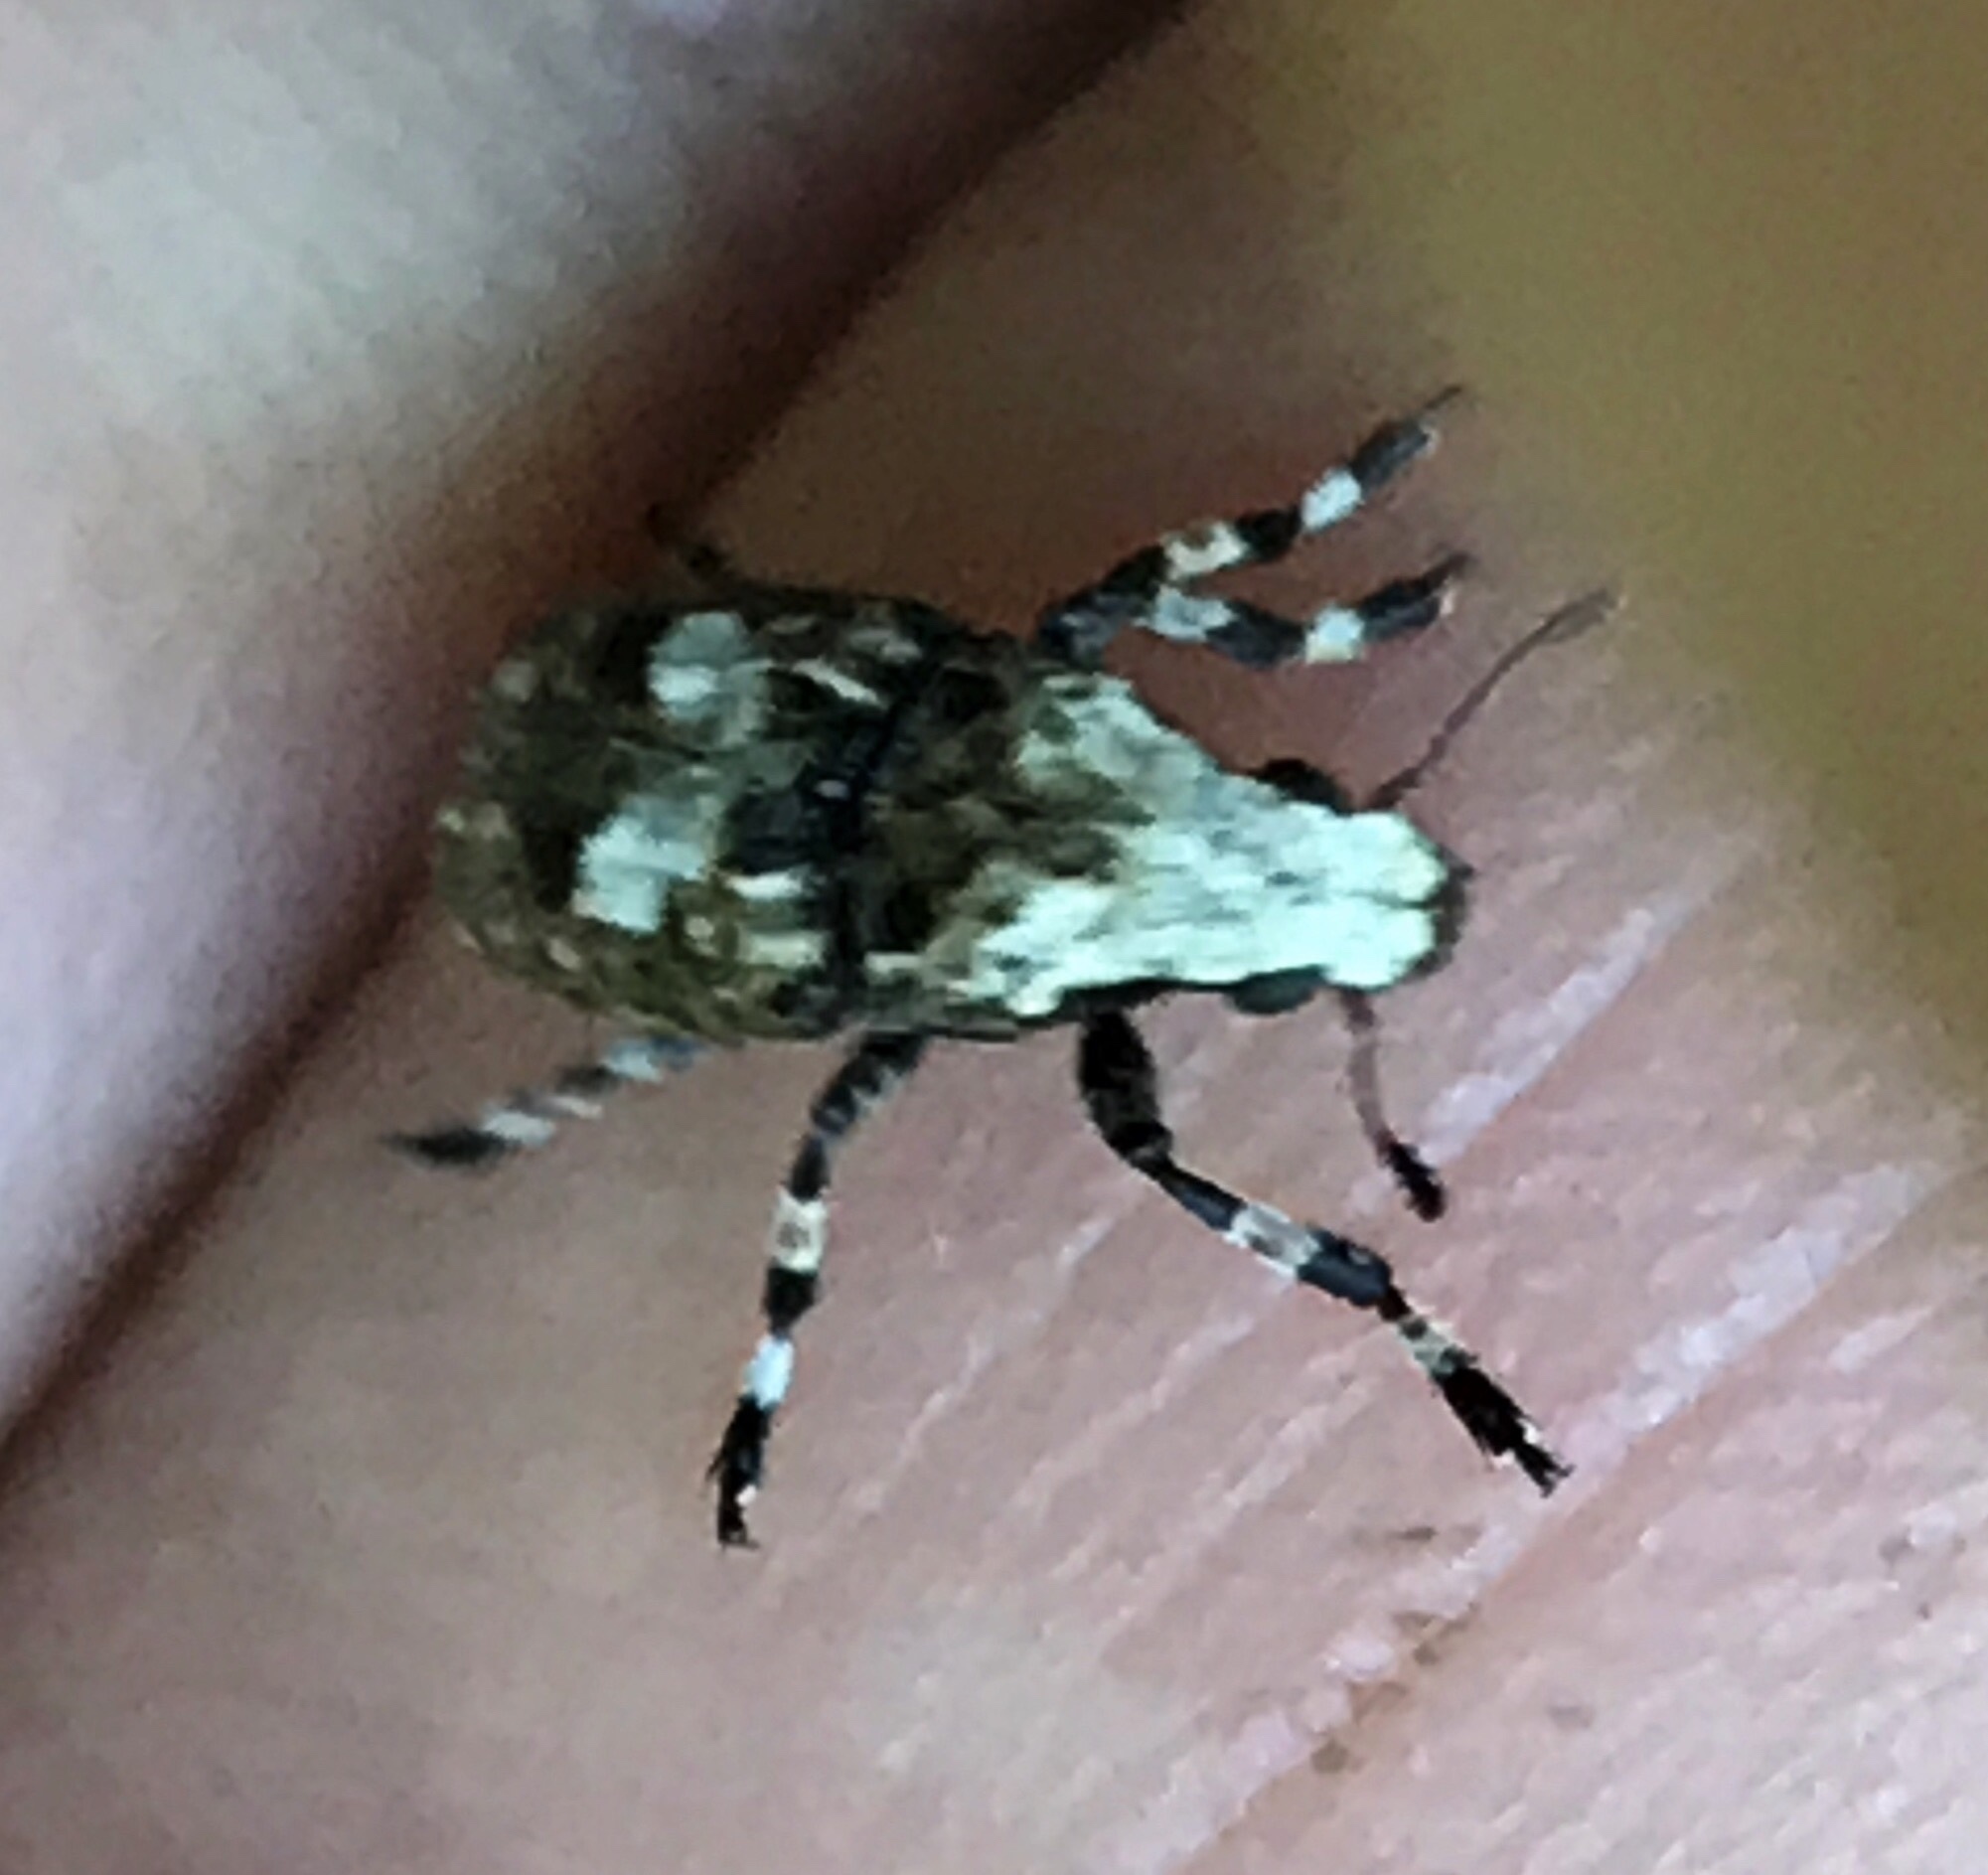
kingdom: Animalia
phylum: Arthropoda
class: Insecta
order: Coleoptera
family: Anthribidae
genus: Euparius
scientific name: Euparius marmoreus
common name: Marbled fungus weevil
